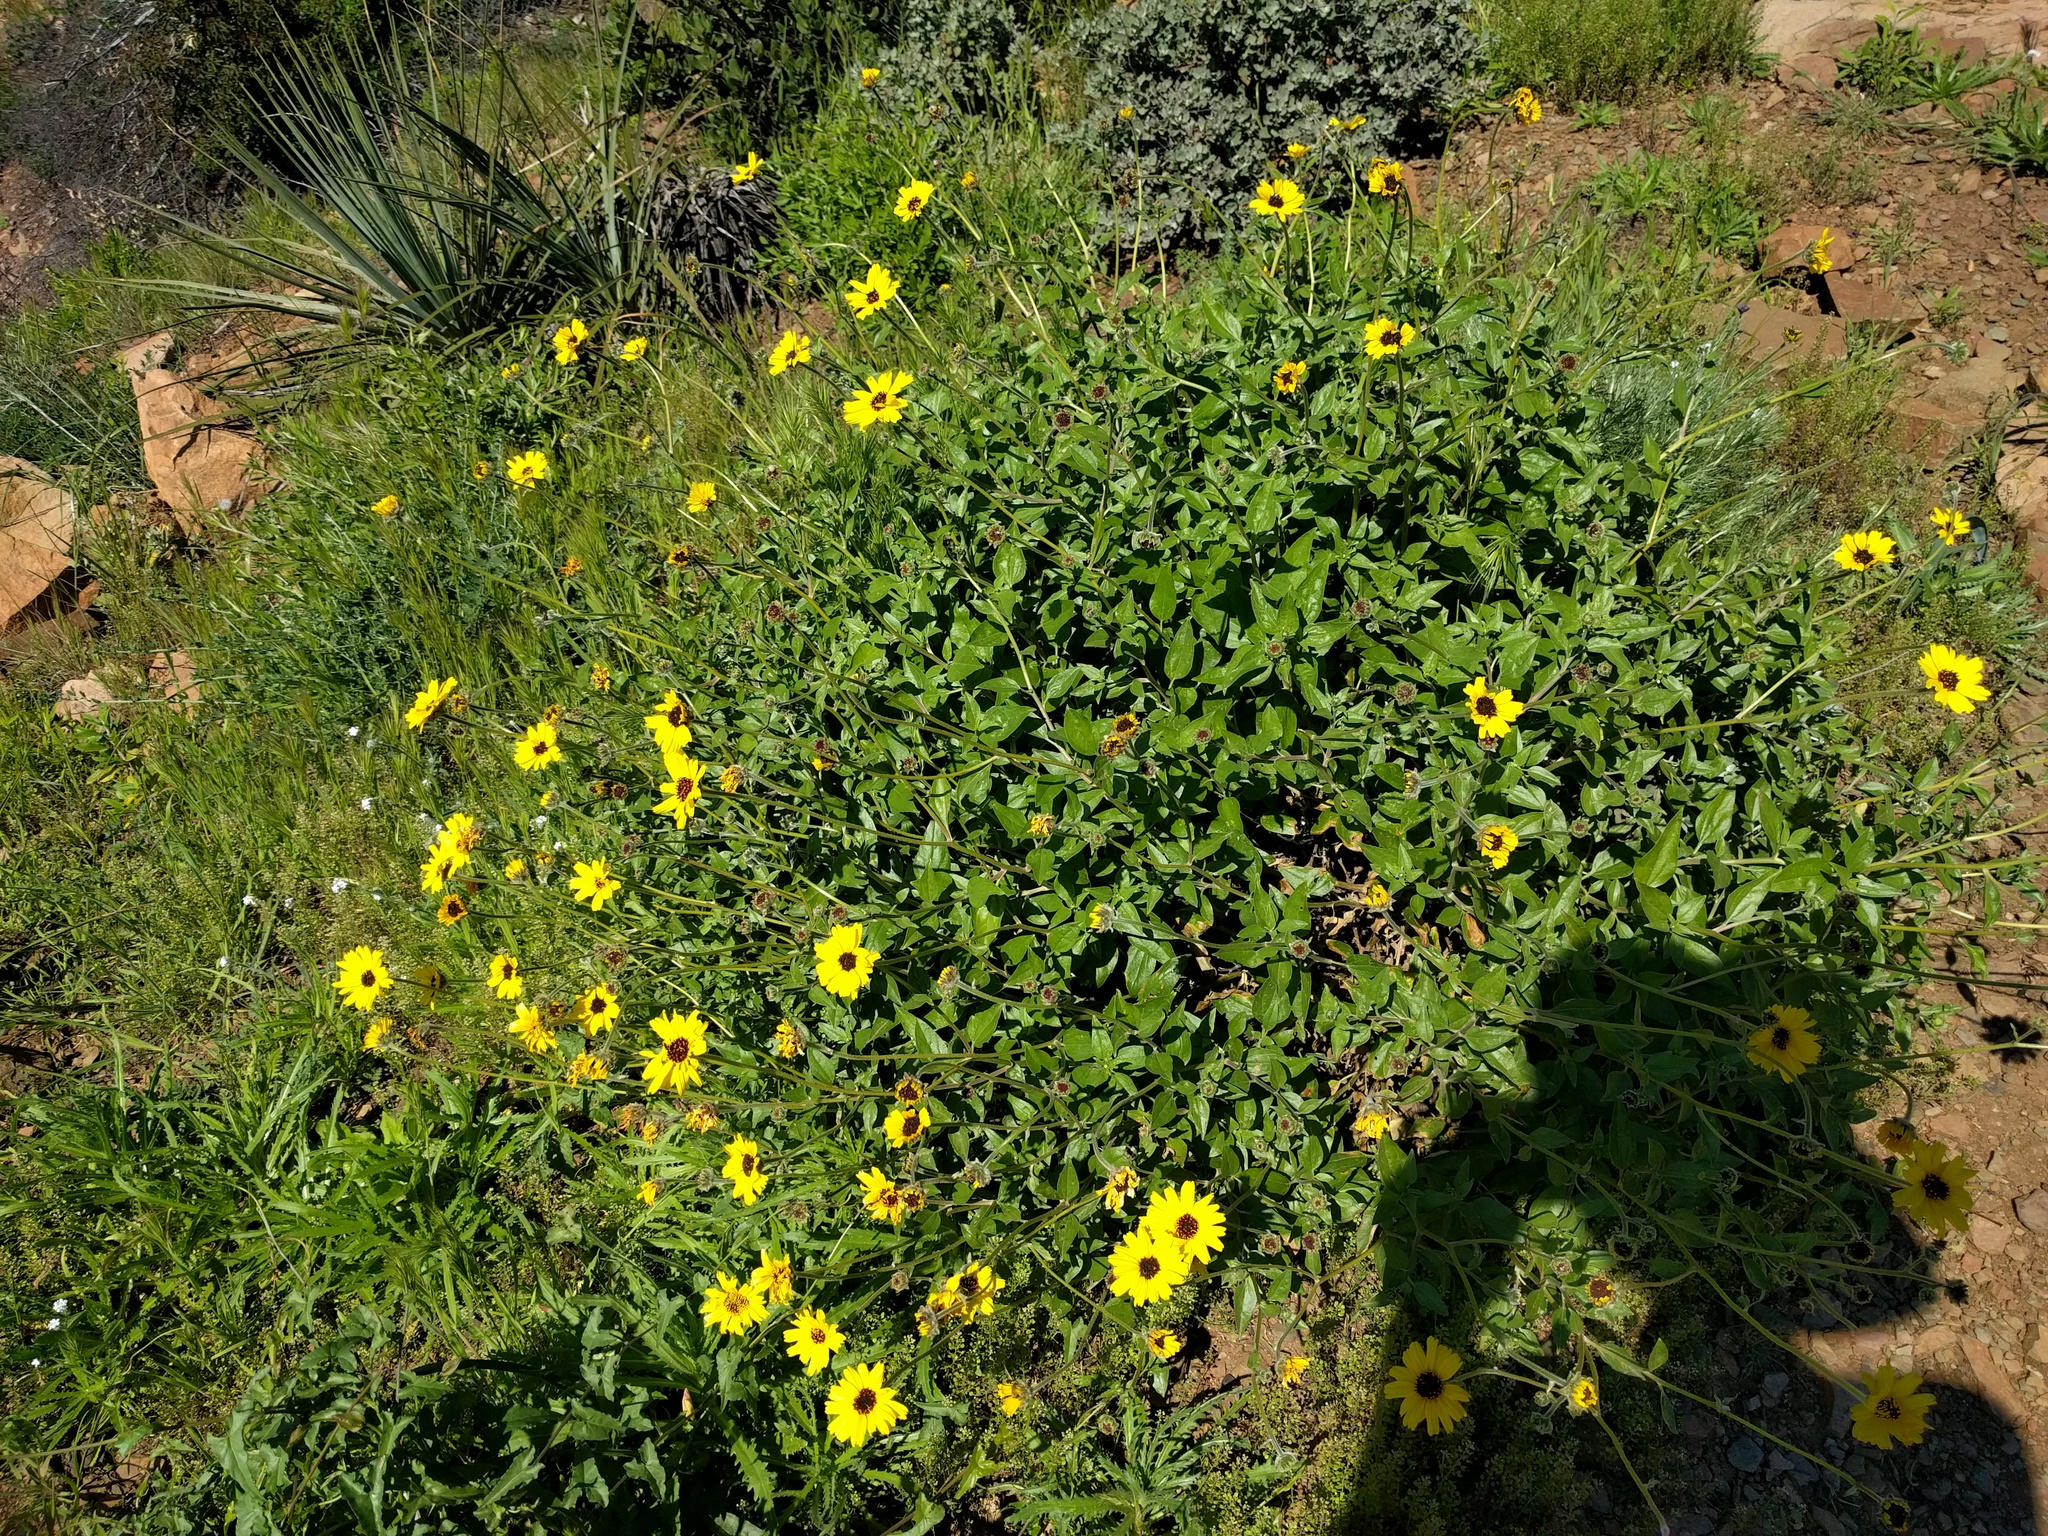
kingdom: Plantae
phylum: Tracheophyta
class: Magnoliopsida
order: Asterales
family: Asteraceae
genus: Encelia
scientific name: Encelia californica
